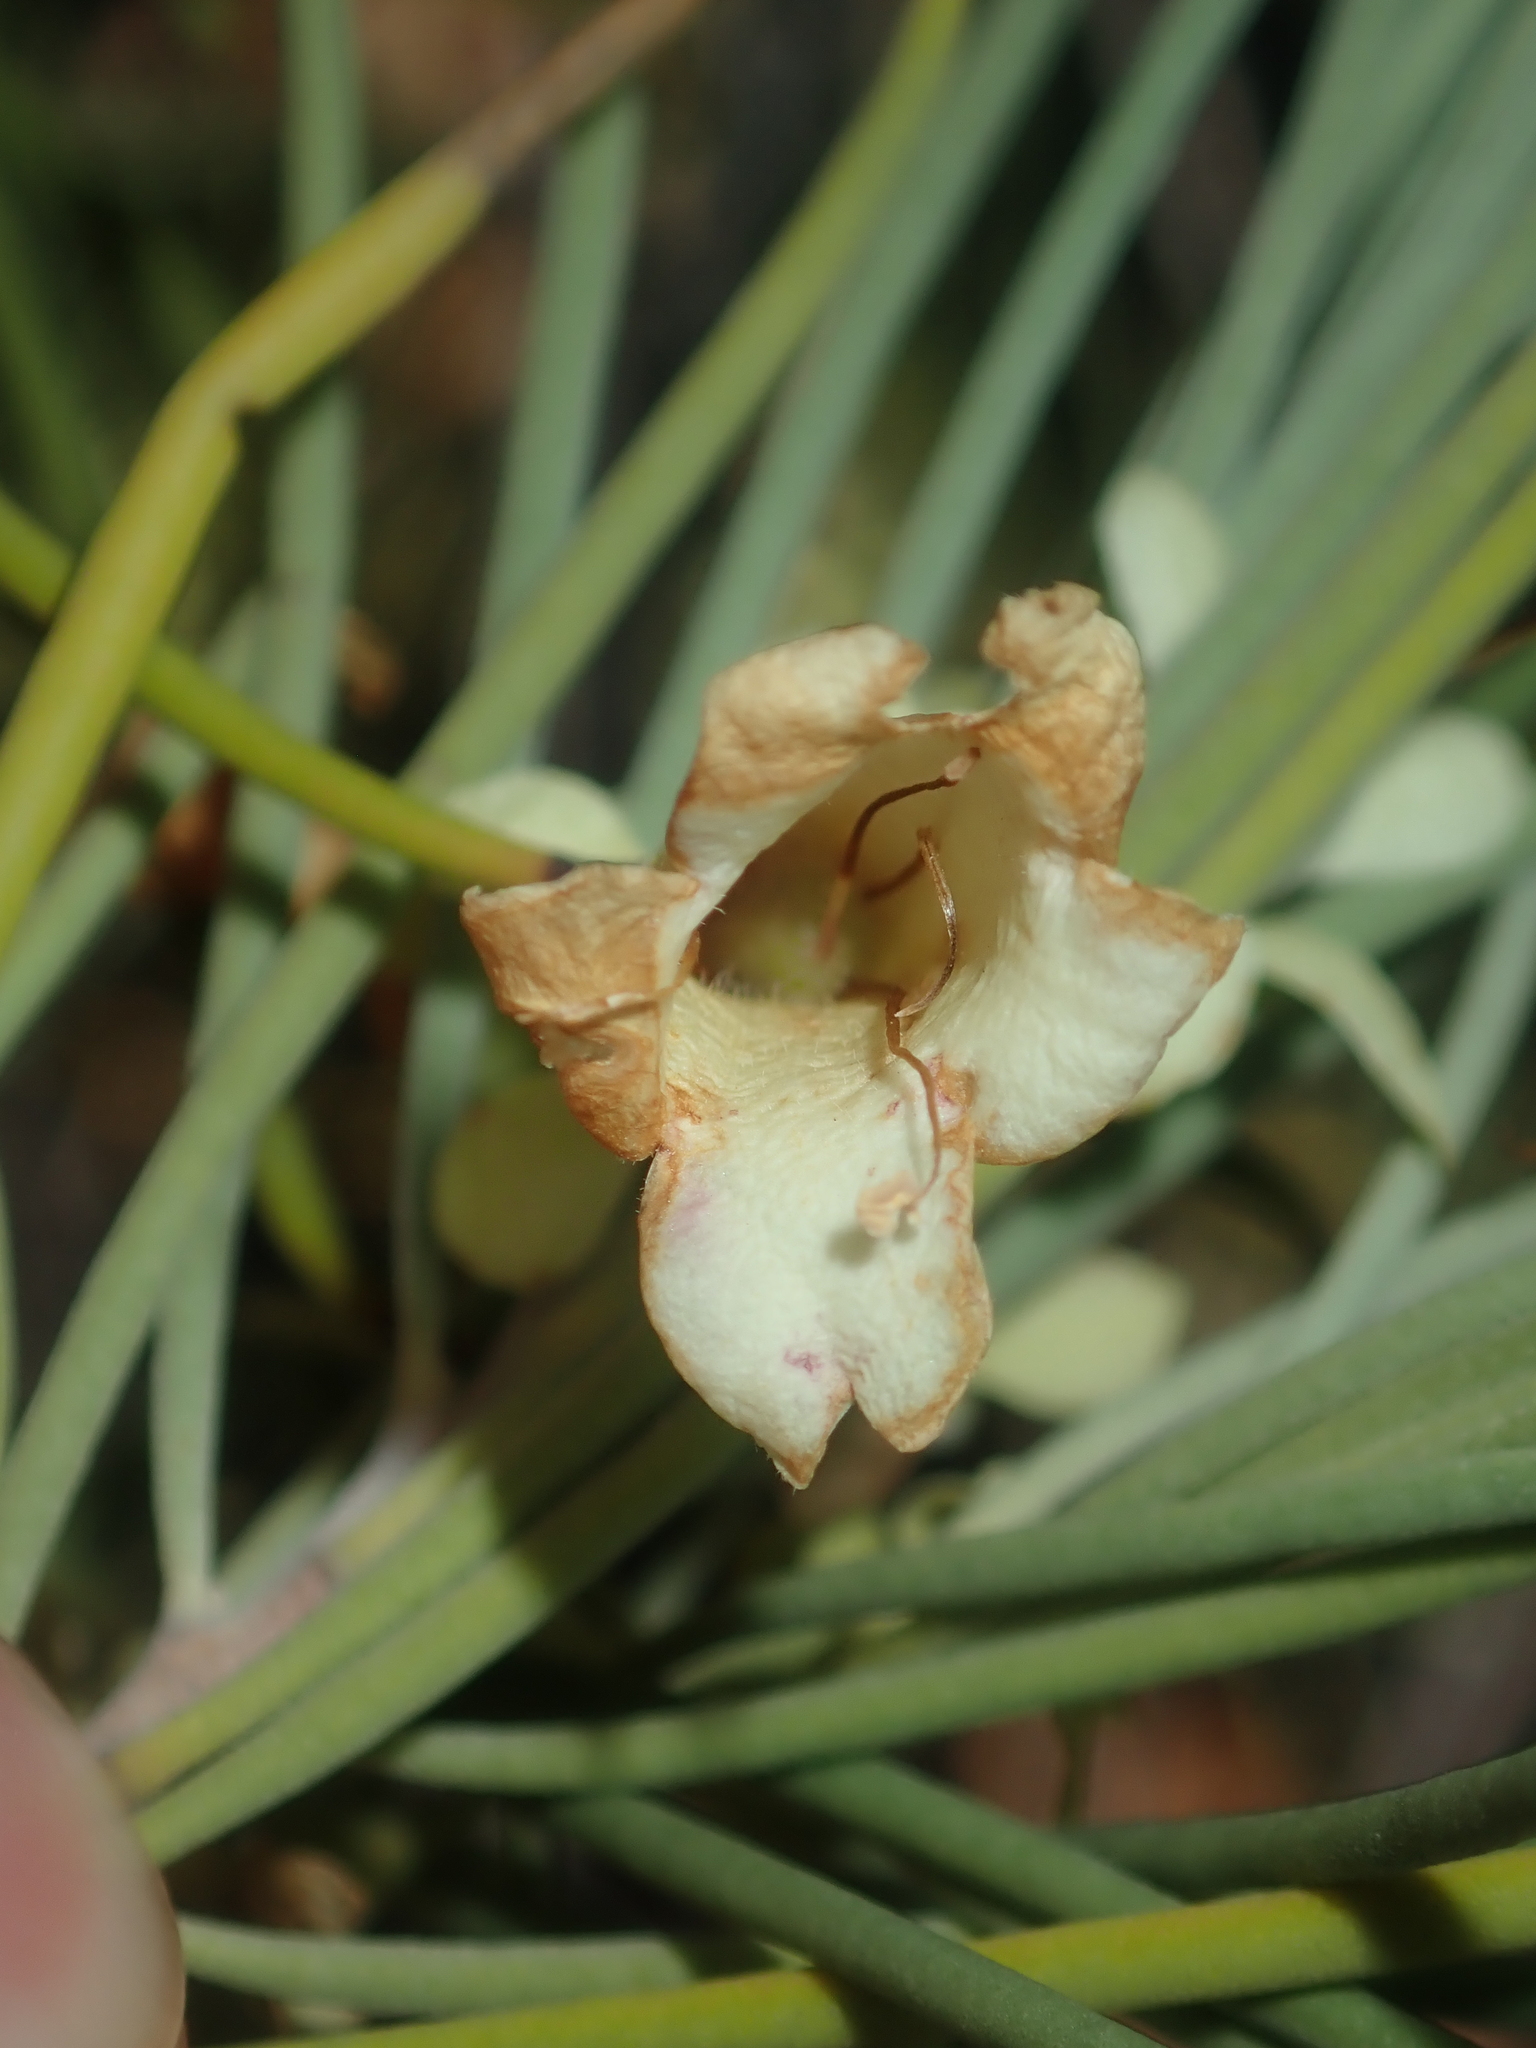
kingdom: Plantae
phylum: Tracheophyta
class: Magnoliopsida
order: Lamiales
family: Scrophulariaceae
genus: Eremophila
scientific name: Eremophila oppositifolia
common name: Mountain-sandalwood
